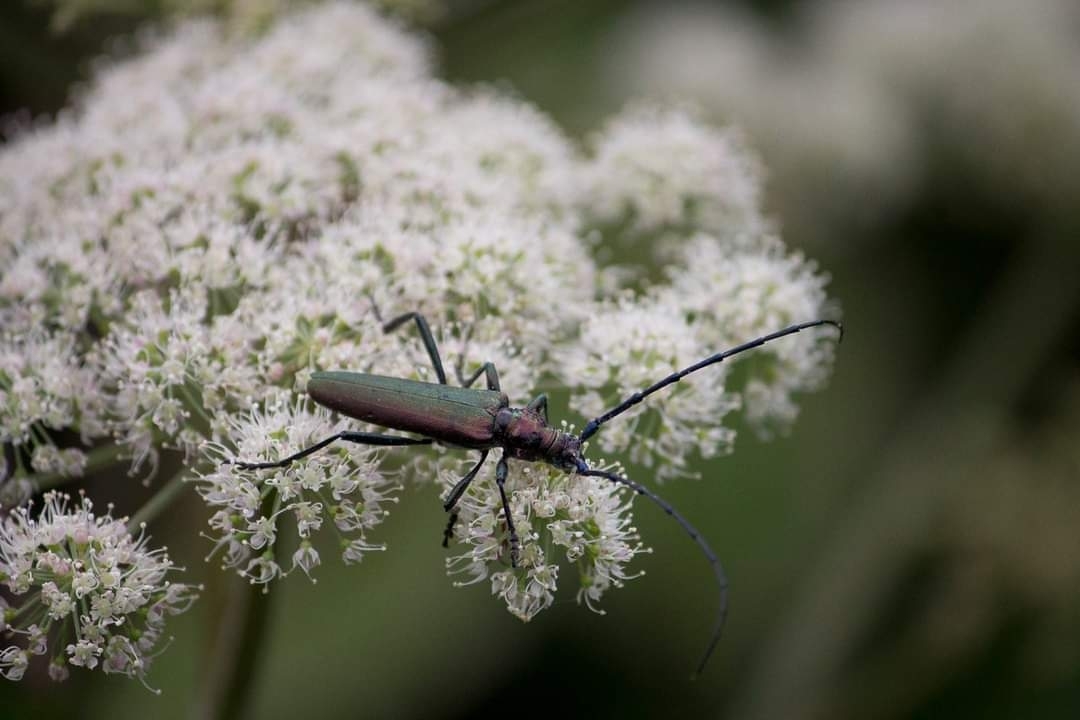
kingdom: Animalia
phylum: Arthropoda
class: Insecta
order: Coleoptera
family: Cerambycidae
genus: Aromia
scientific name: Aromia moschata
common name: Musk beetle
